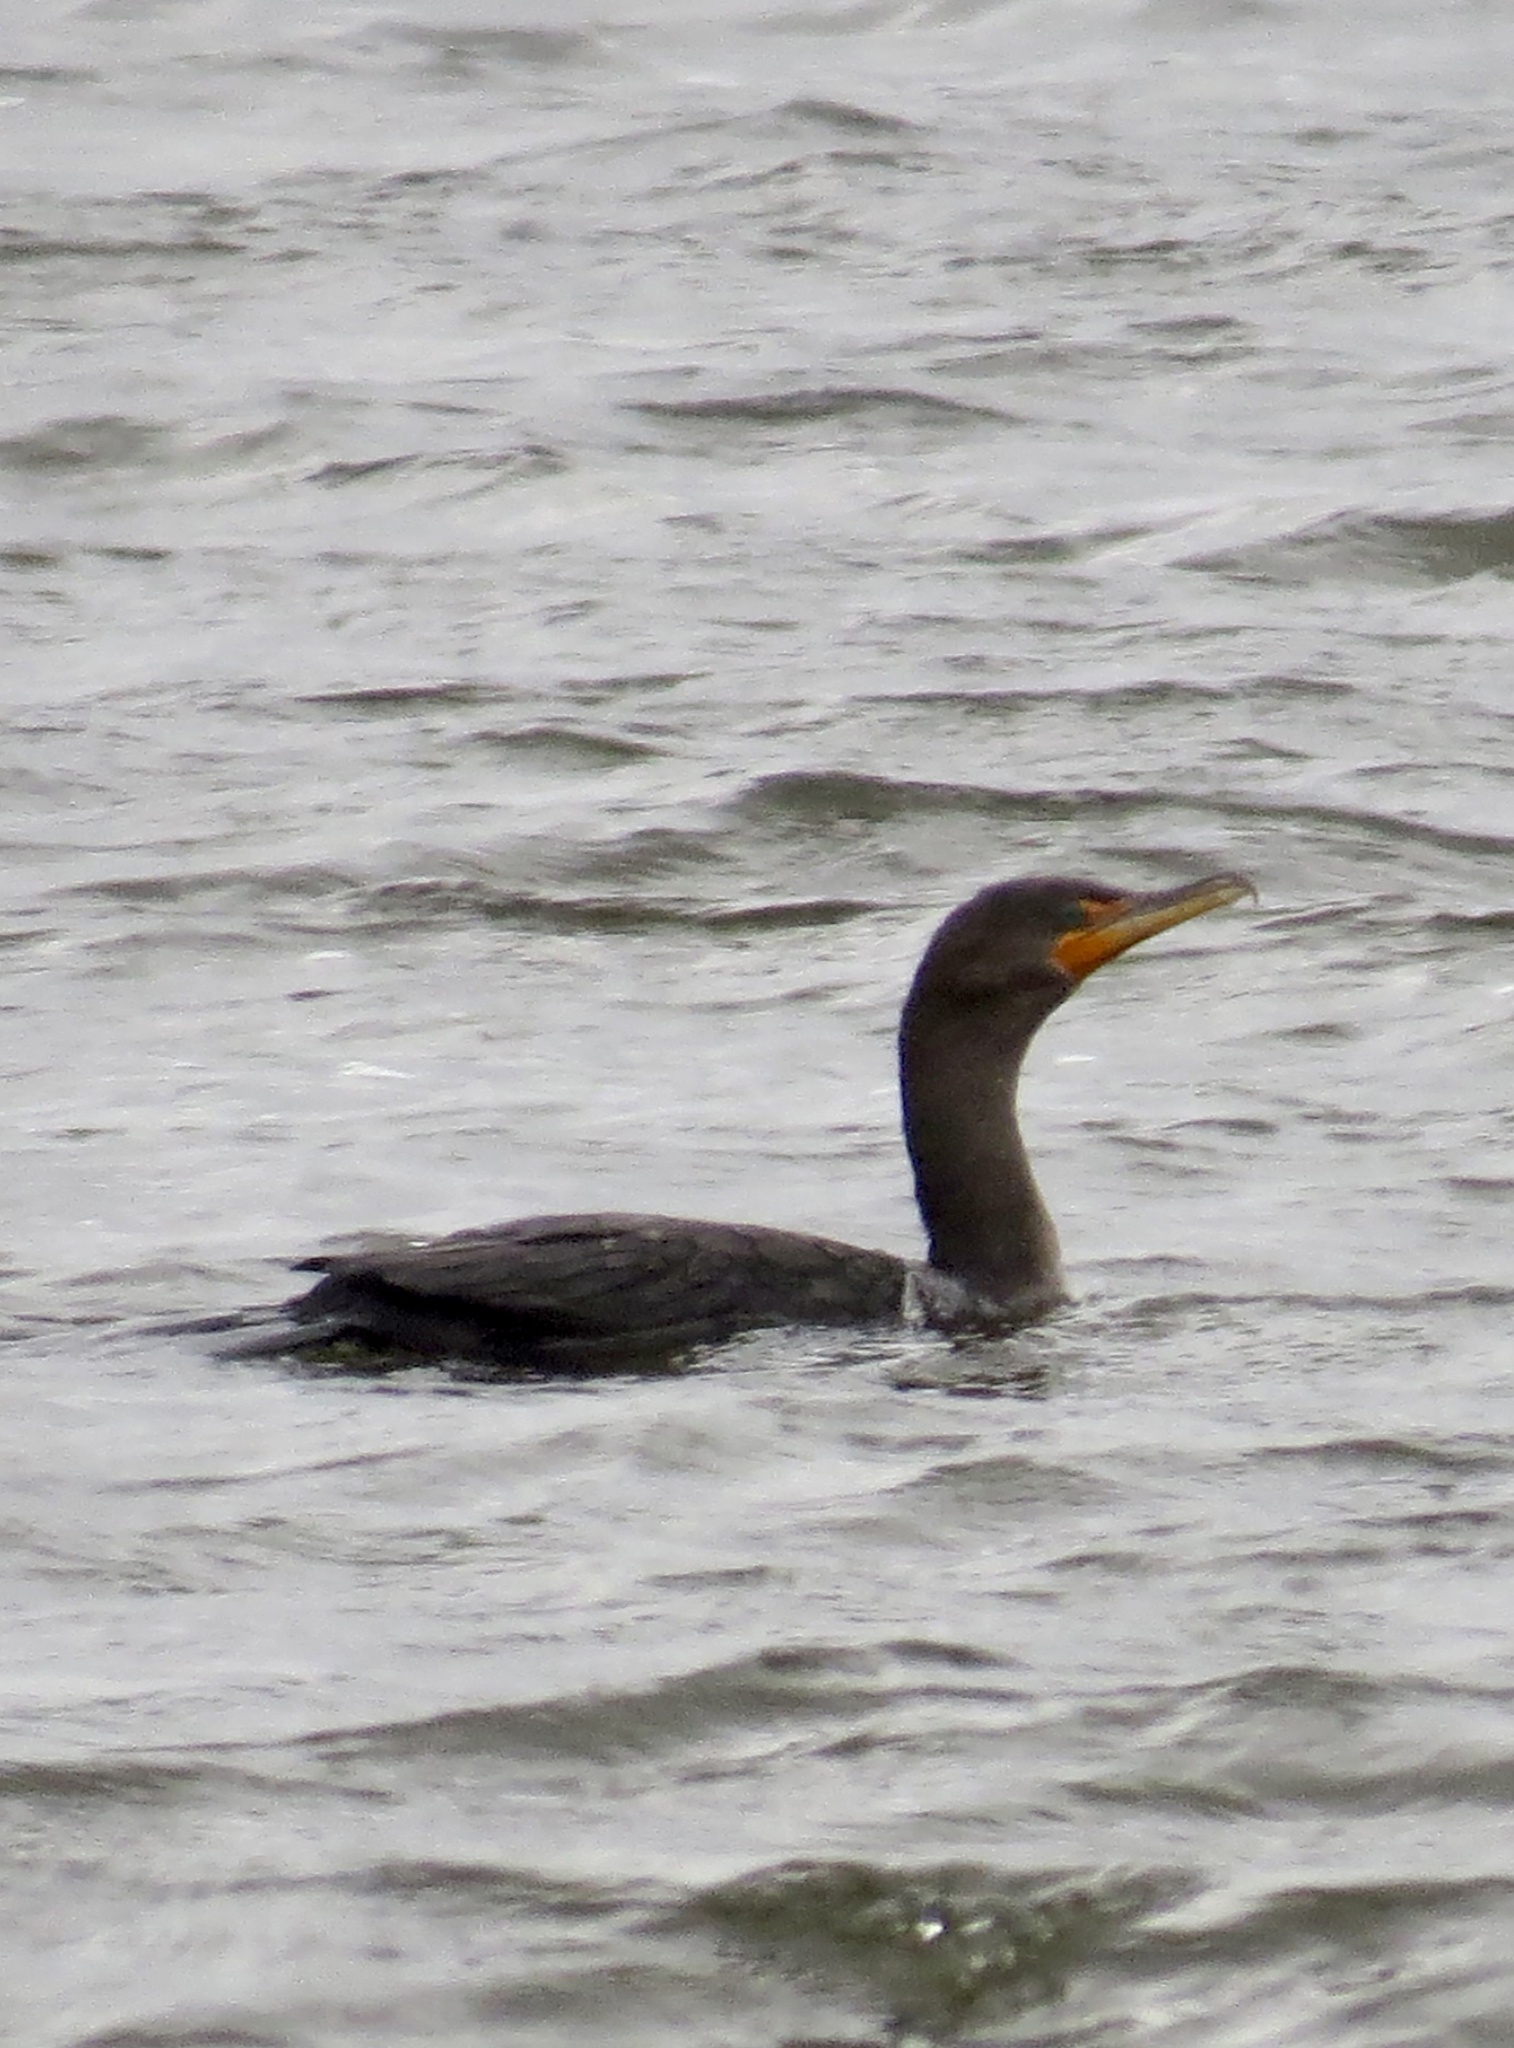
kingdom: Animalia
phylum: Chordata
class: Aves
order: Suliformes
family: Phalacrocoracidae
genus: Phalacrocorax
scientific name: Phalacrocorax auritus
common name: Double-crested cormorant
